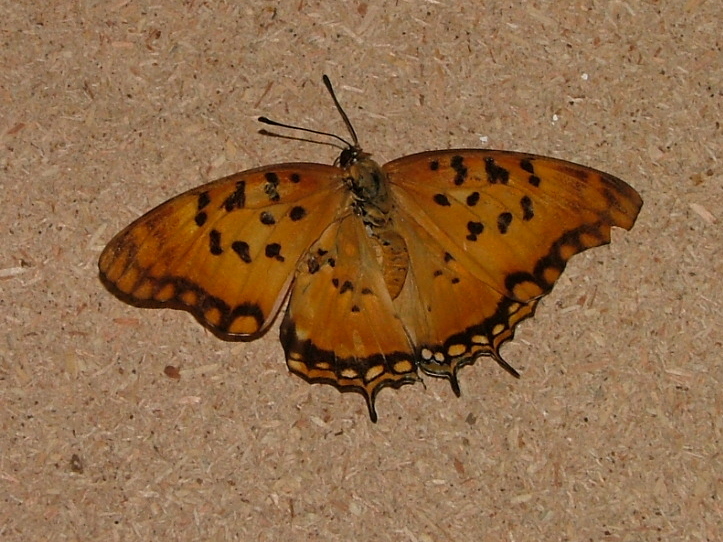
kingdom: Animalia
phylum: Arthropoda
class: Insecta
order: Lepidoptera
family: Nymphalidae
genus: Charaxes
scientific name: Charaxes jahlusa
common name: Pearl-spotted charaxes
